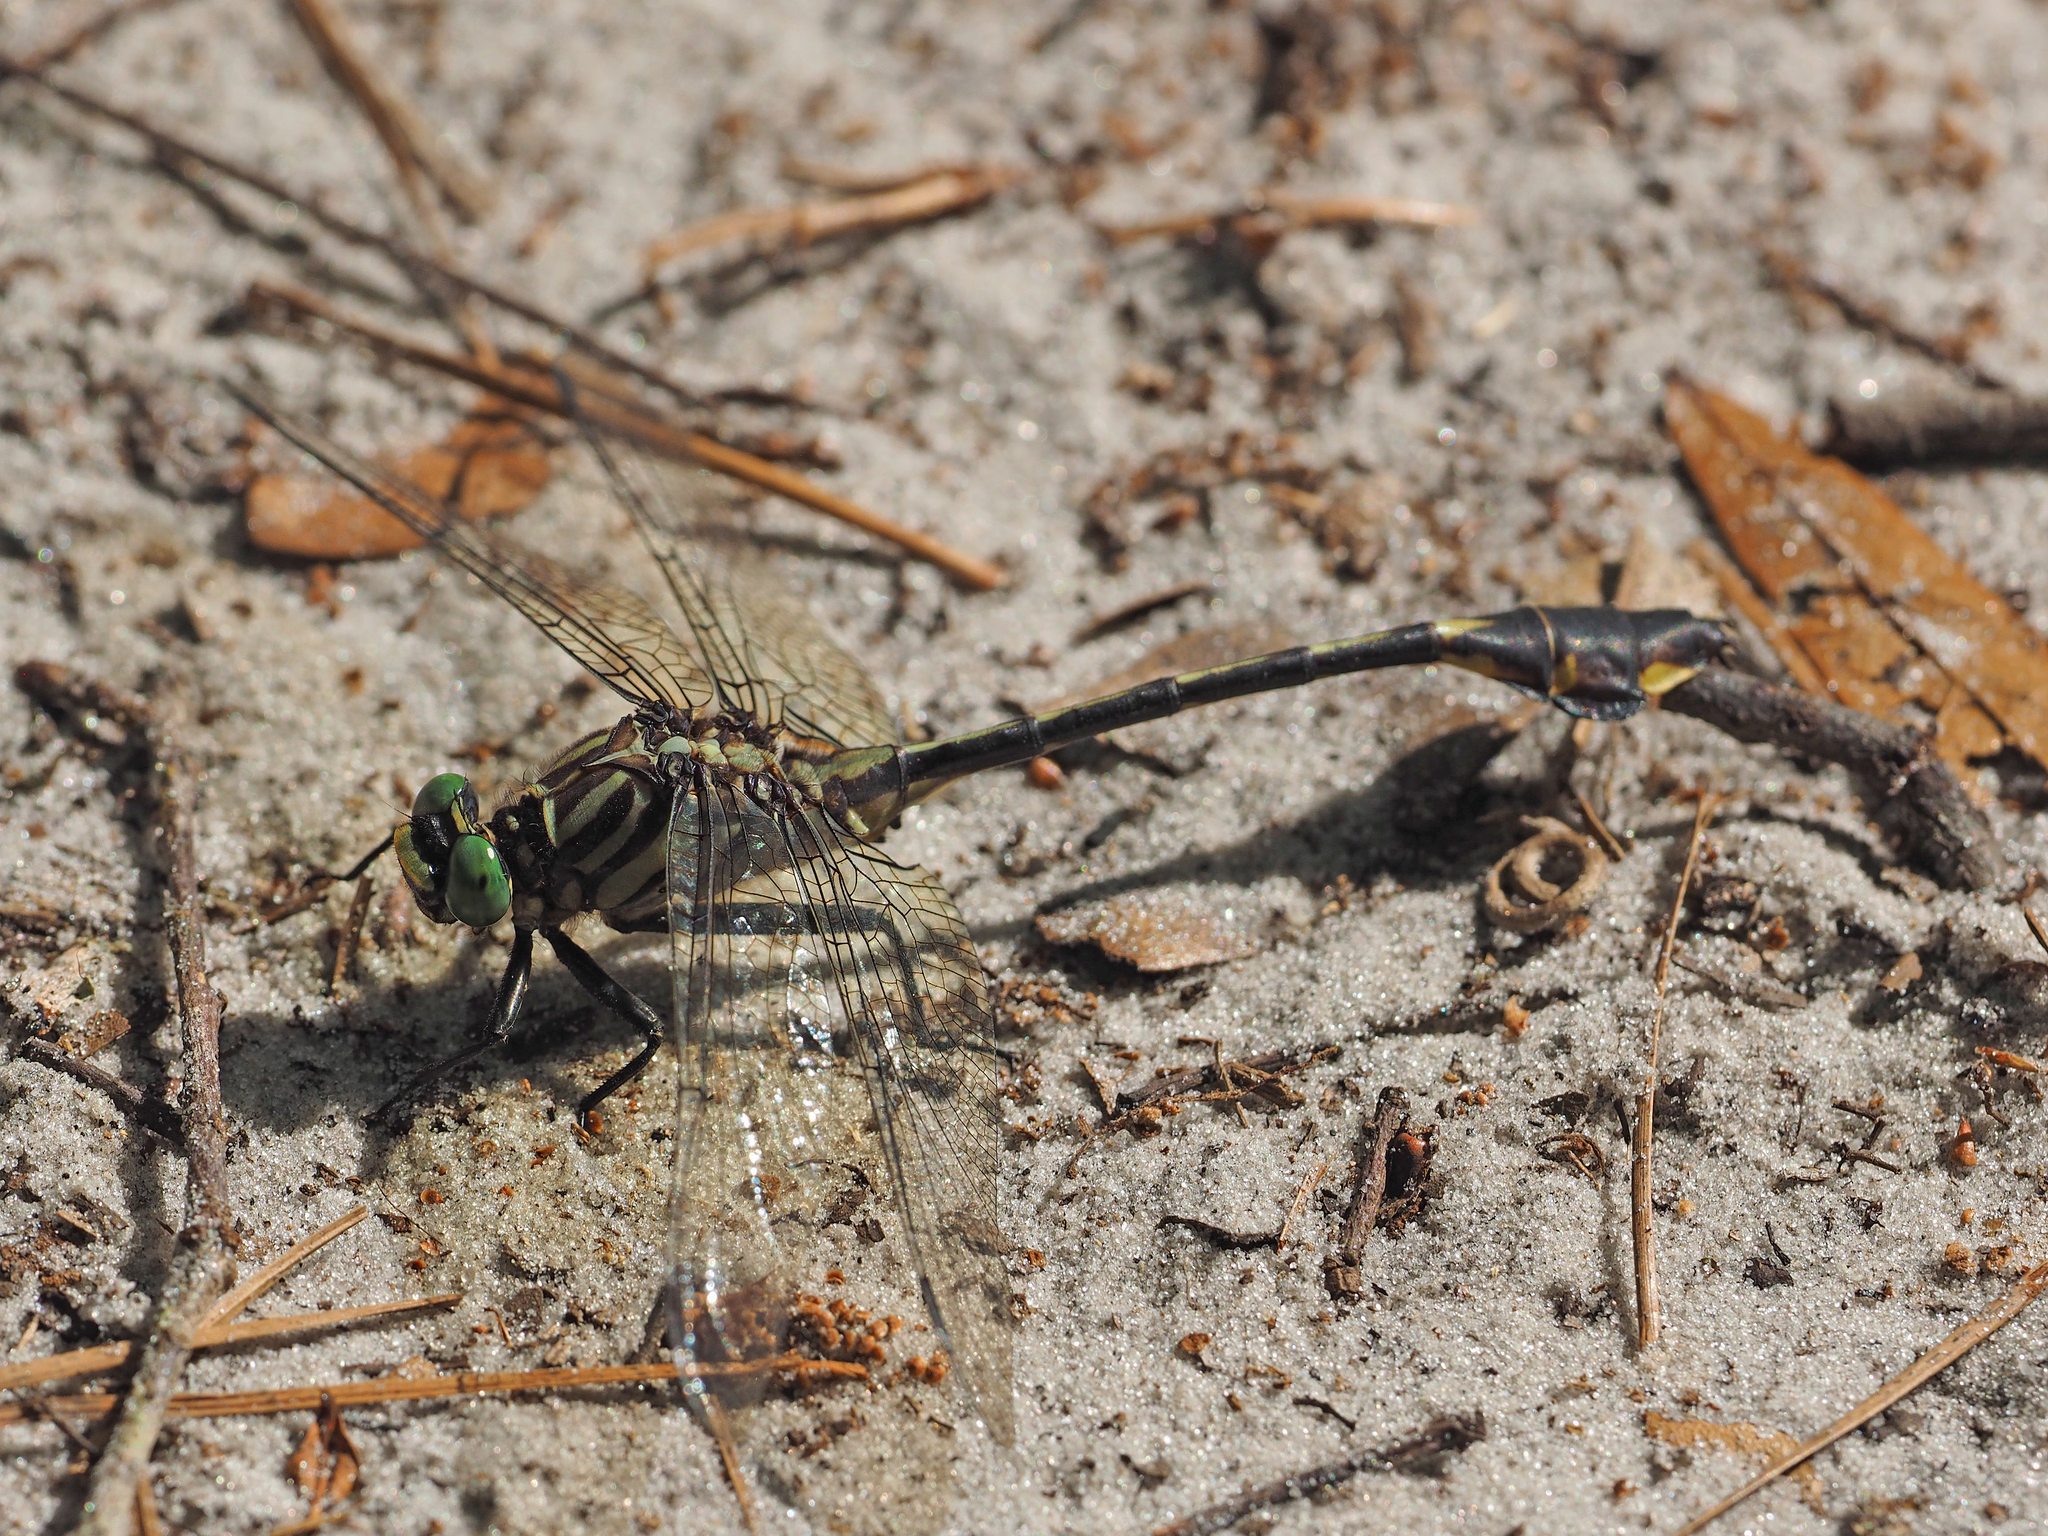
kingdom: Animalia
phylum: Arthropoda
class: Insecta
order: Odonata
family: Gomphidae
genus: Gomphurus
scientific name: Gomphurus dilatatus
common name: Blackwater clubtail
